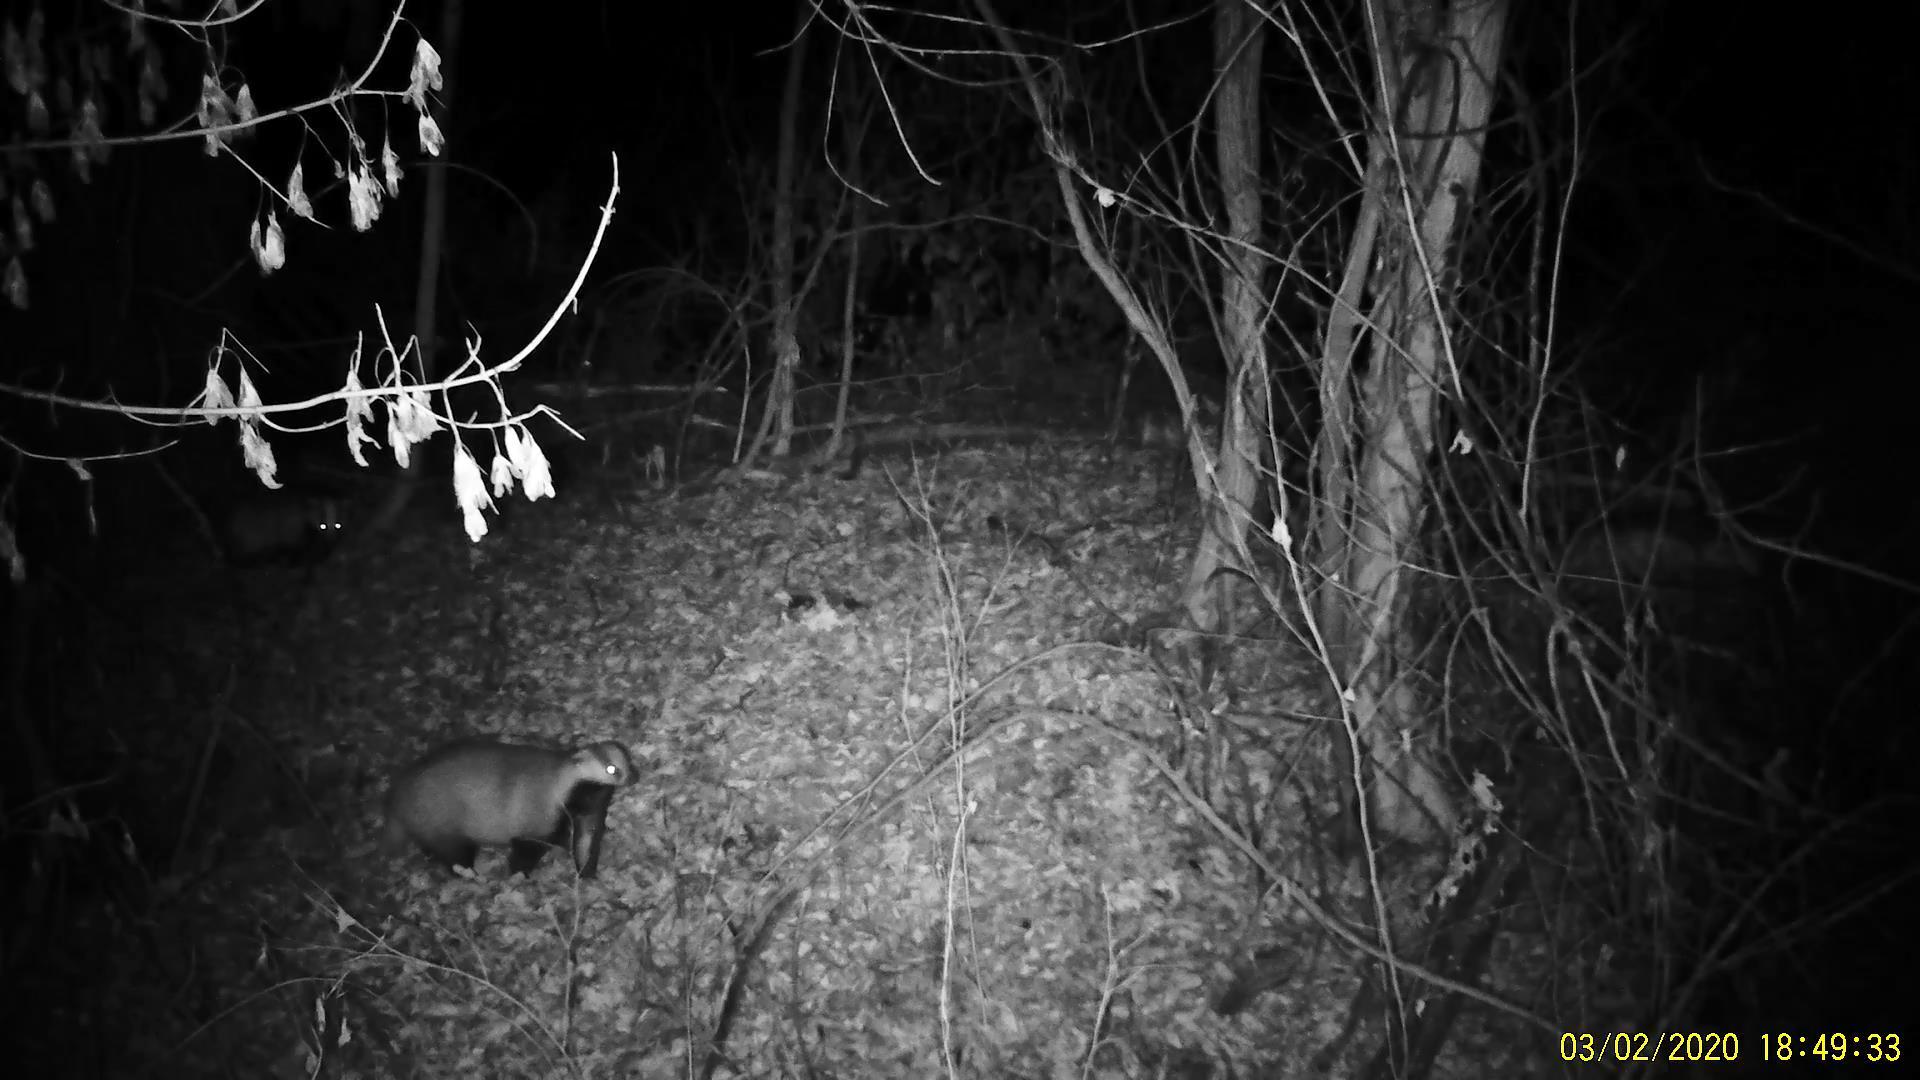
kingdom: Animalia
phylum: Chordata
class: Mammalia
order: Carnivora
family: Mustelidae
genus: Meles
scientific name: Meles leucurus
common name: Asian badger
